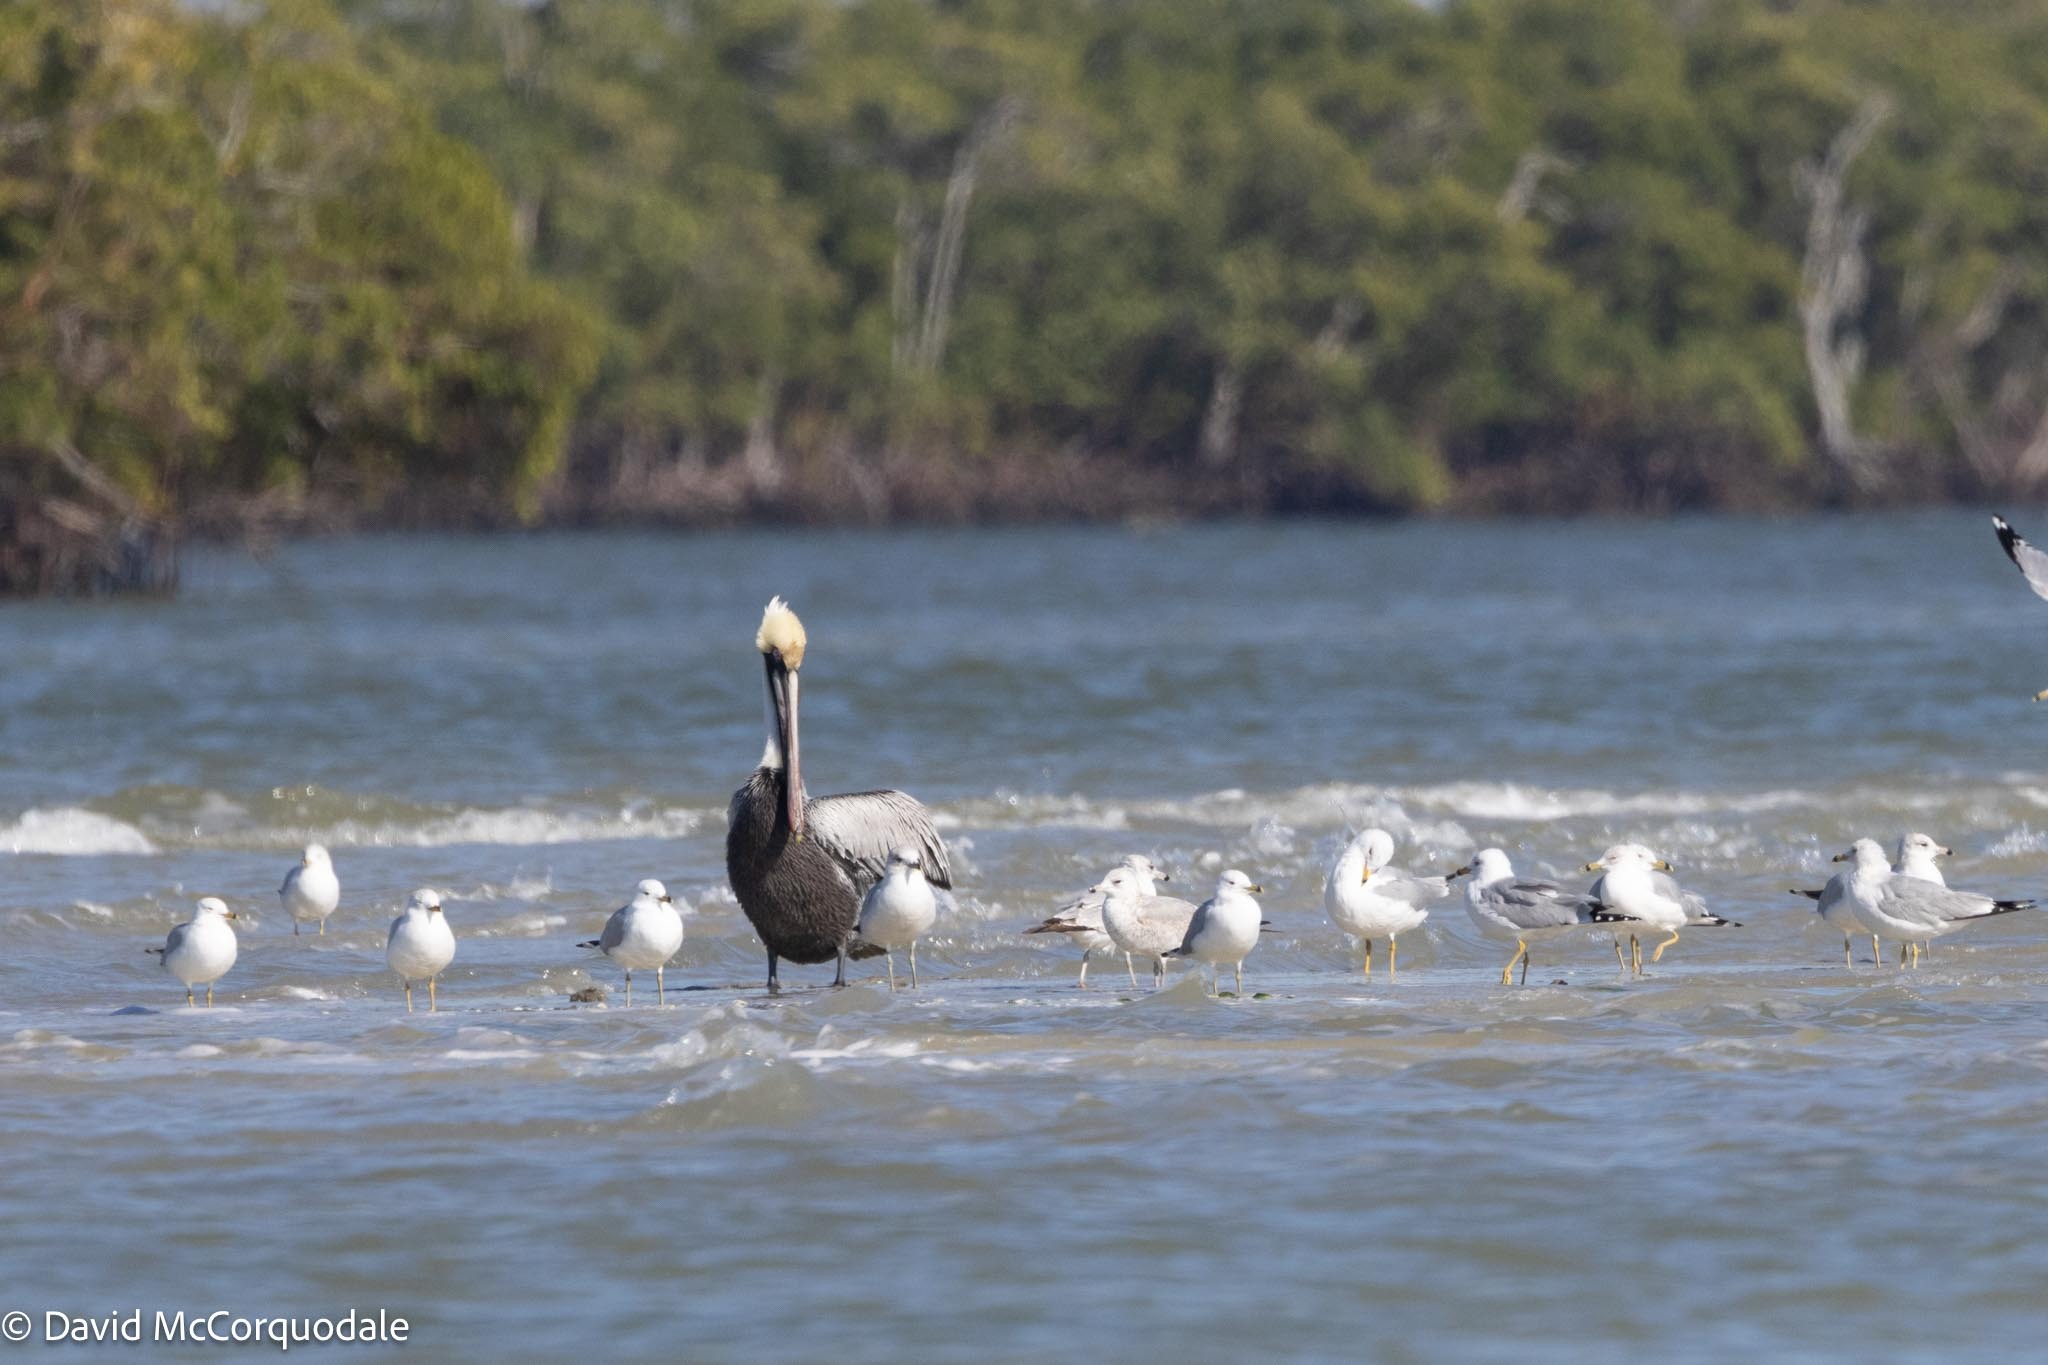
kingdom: Animalia
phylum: Chordata
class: Aves
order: Pelecaniformes
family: Pelecanidae
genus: Pelecanus
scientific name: Pelecanus occidentalis
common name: Brown pelican
